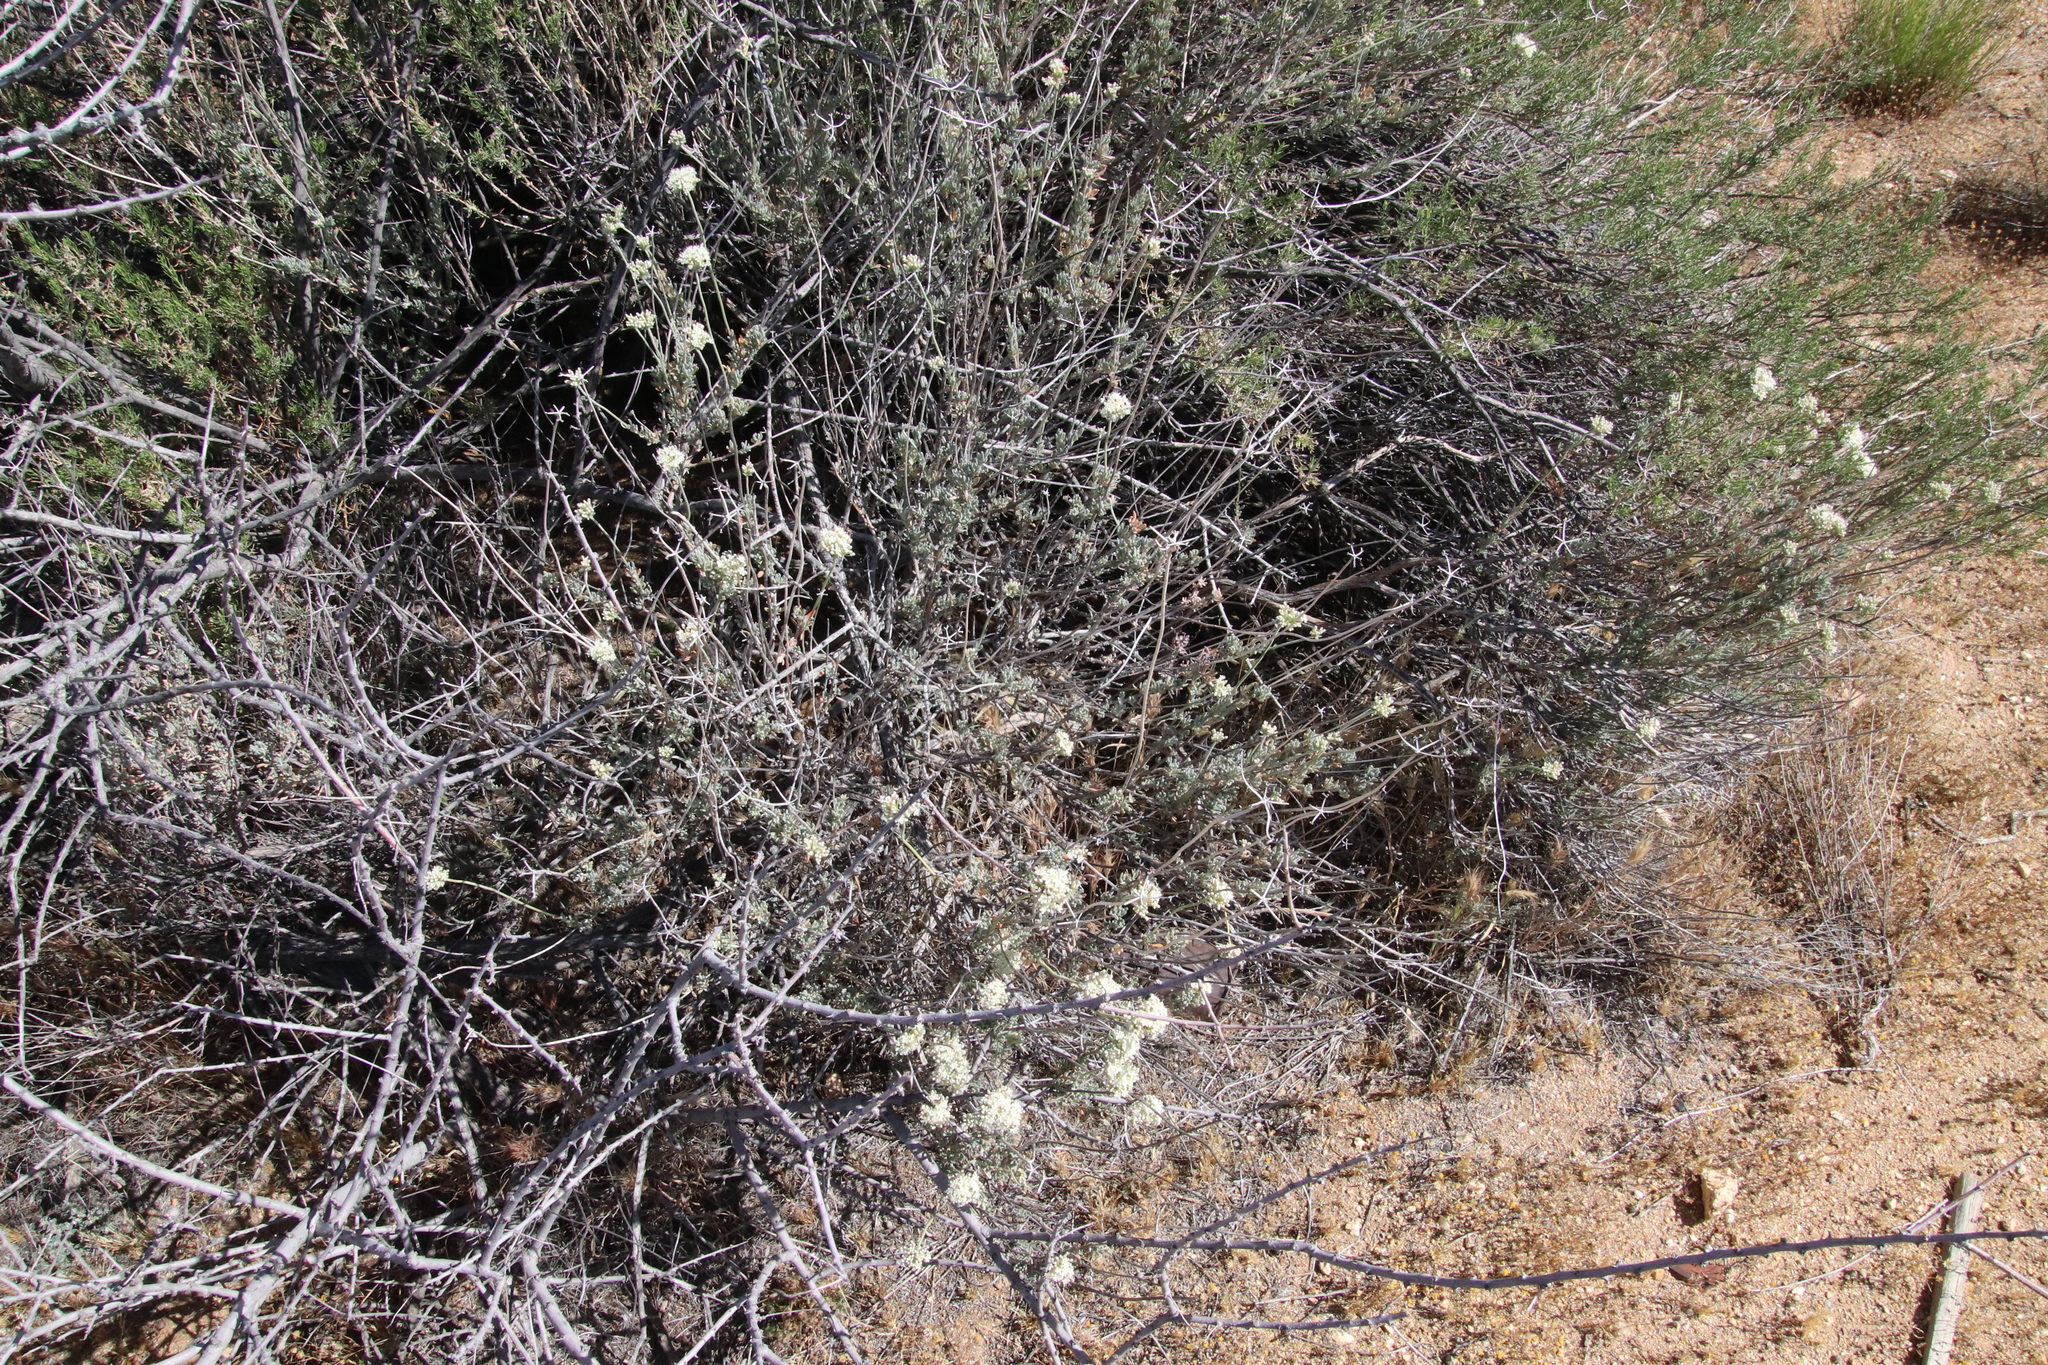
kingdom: Plantae
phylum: Tracheophyta
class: Magnoliopsida
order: Caryophyllales
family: Polygonaceae
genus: Eriogonum
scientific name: Eriogonum fasciculatum
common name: California wild buckwheat
